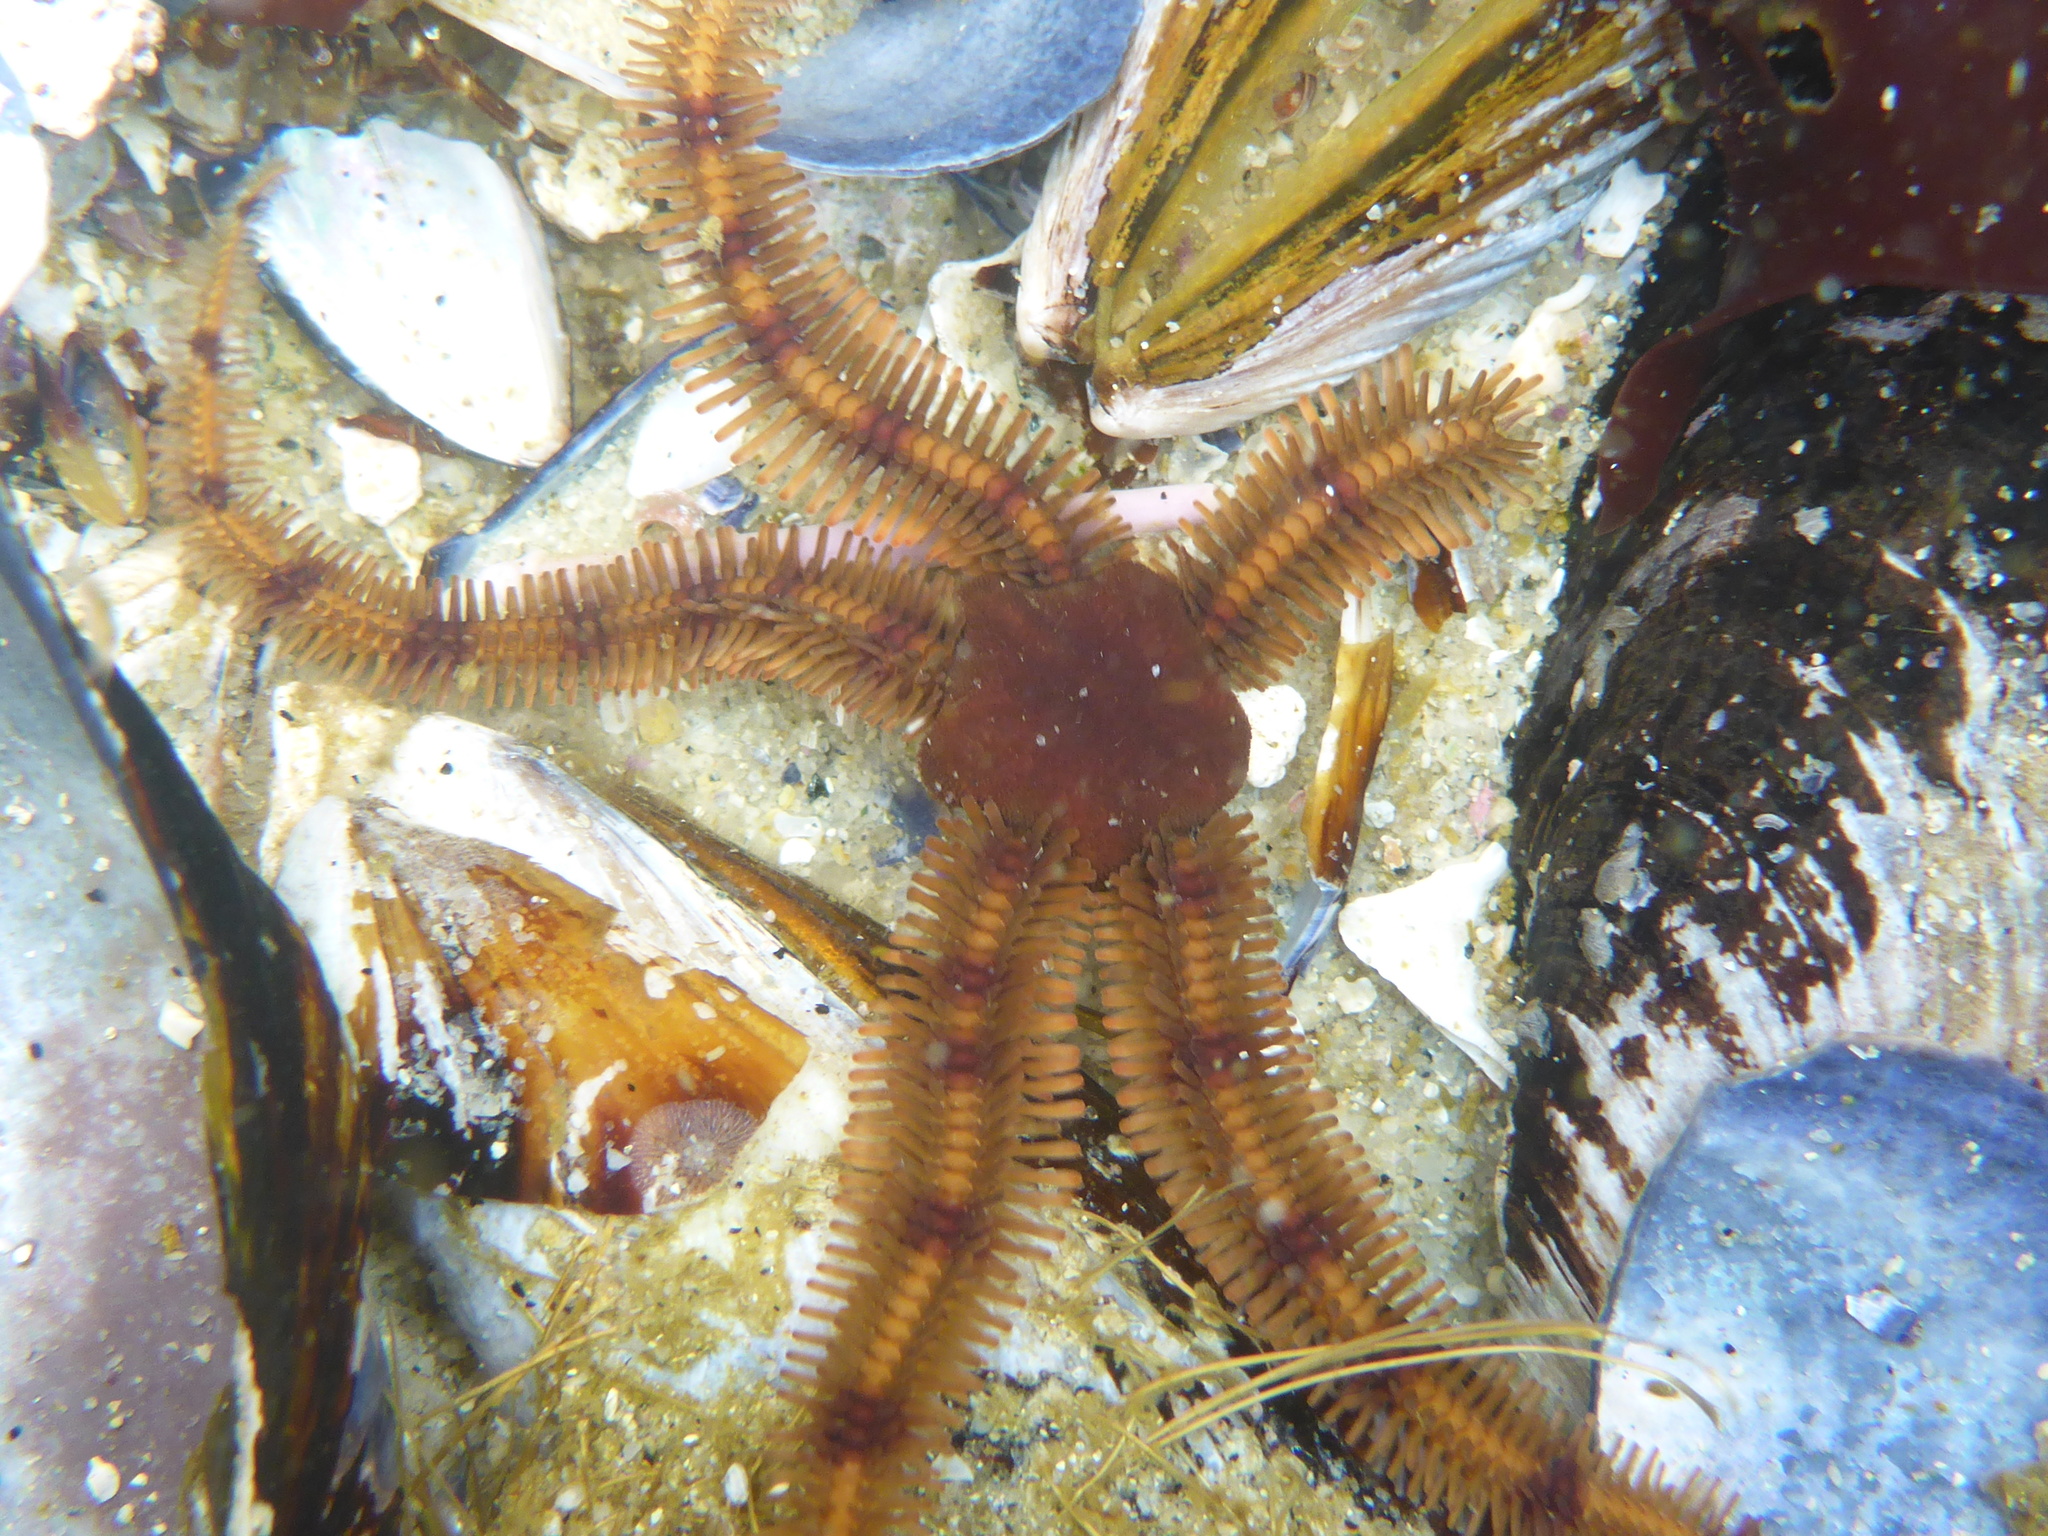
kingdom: Animalia
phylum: Echinodermata
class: Ophiuroidea
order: Ophiacanthida
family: Ophiopteridae
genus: Ophiopteris
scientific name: Ophiopteris papillosa
